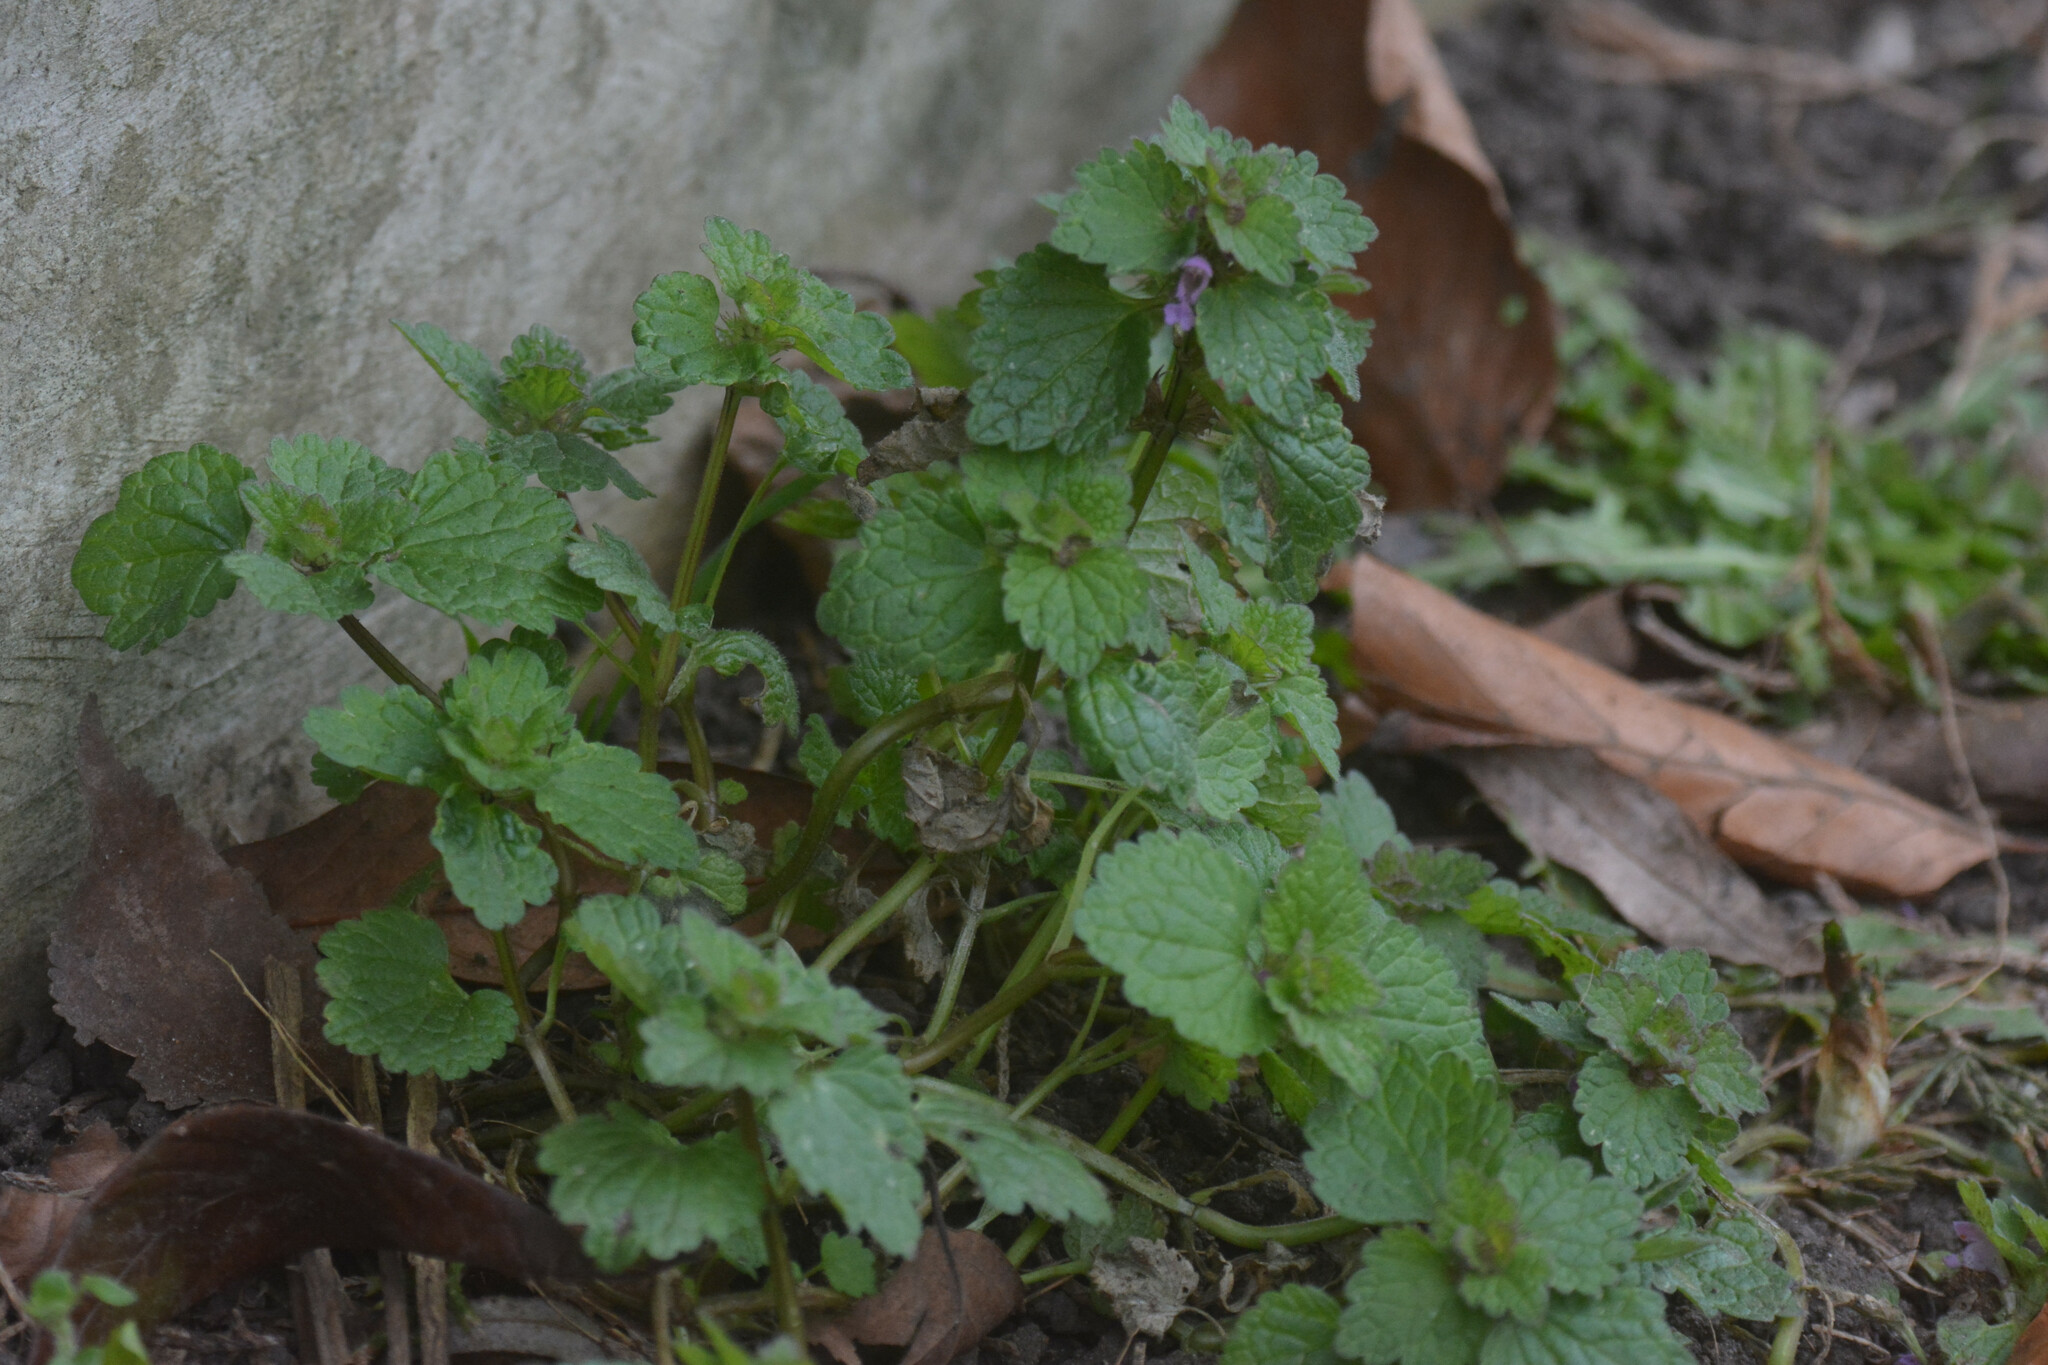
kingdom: Plantae
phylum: Tracheophyta
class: Magnoliopsida
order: Lamiales
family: Lamiaceae
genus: Lamium
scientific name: Lamium purpureum
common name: Red dead-nettle
